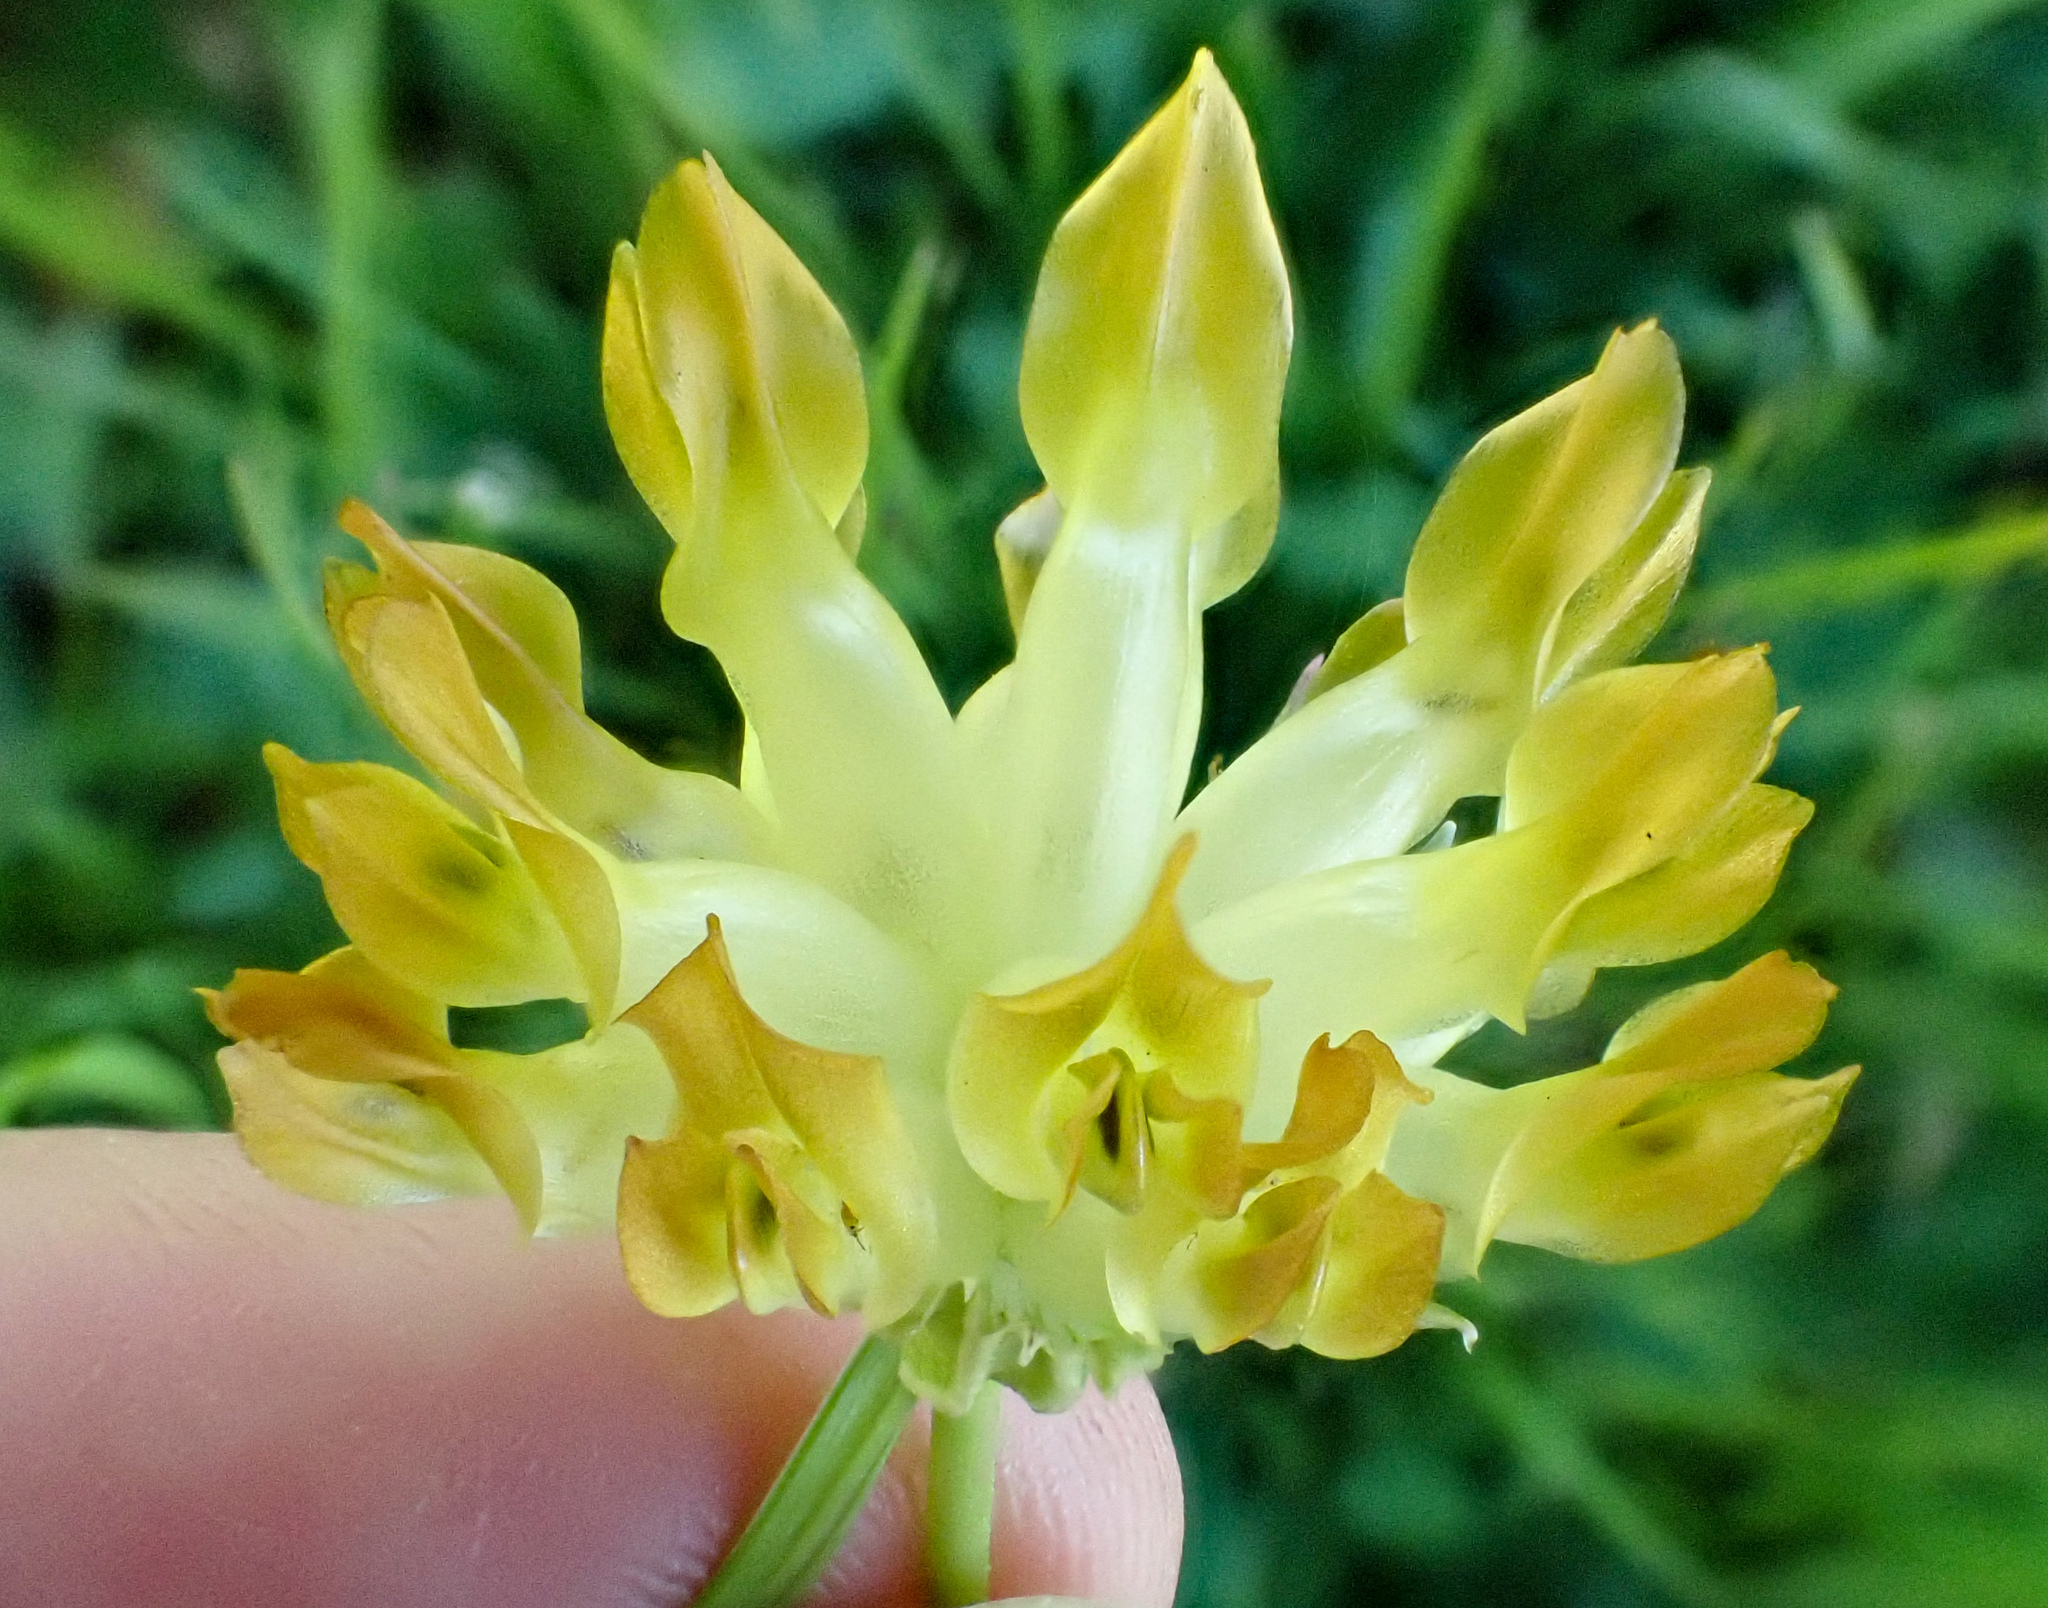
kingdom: Plantae
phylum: Tracheophyta
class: Magnoliopsida
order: Fabales
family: Fabaceae
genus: Trifolium
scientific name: Trifolium fucatum
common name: Puff clover
